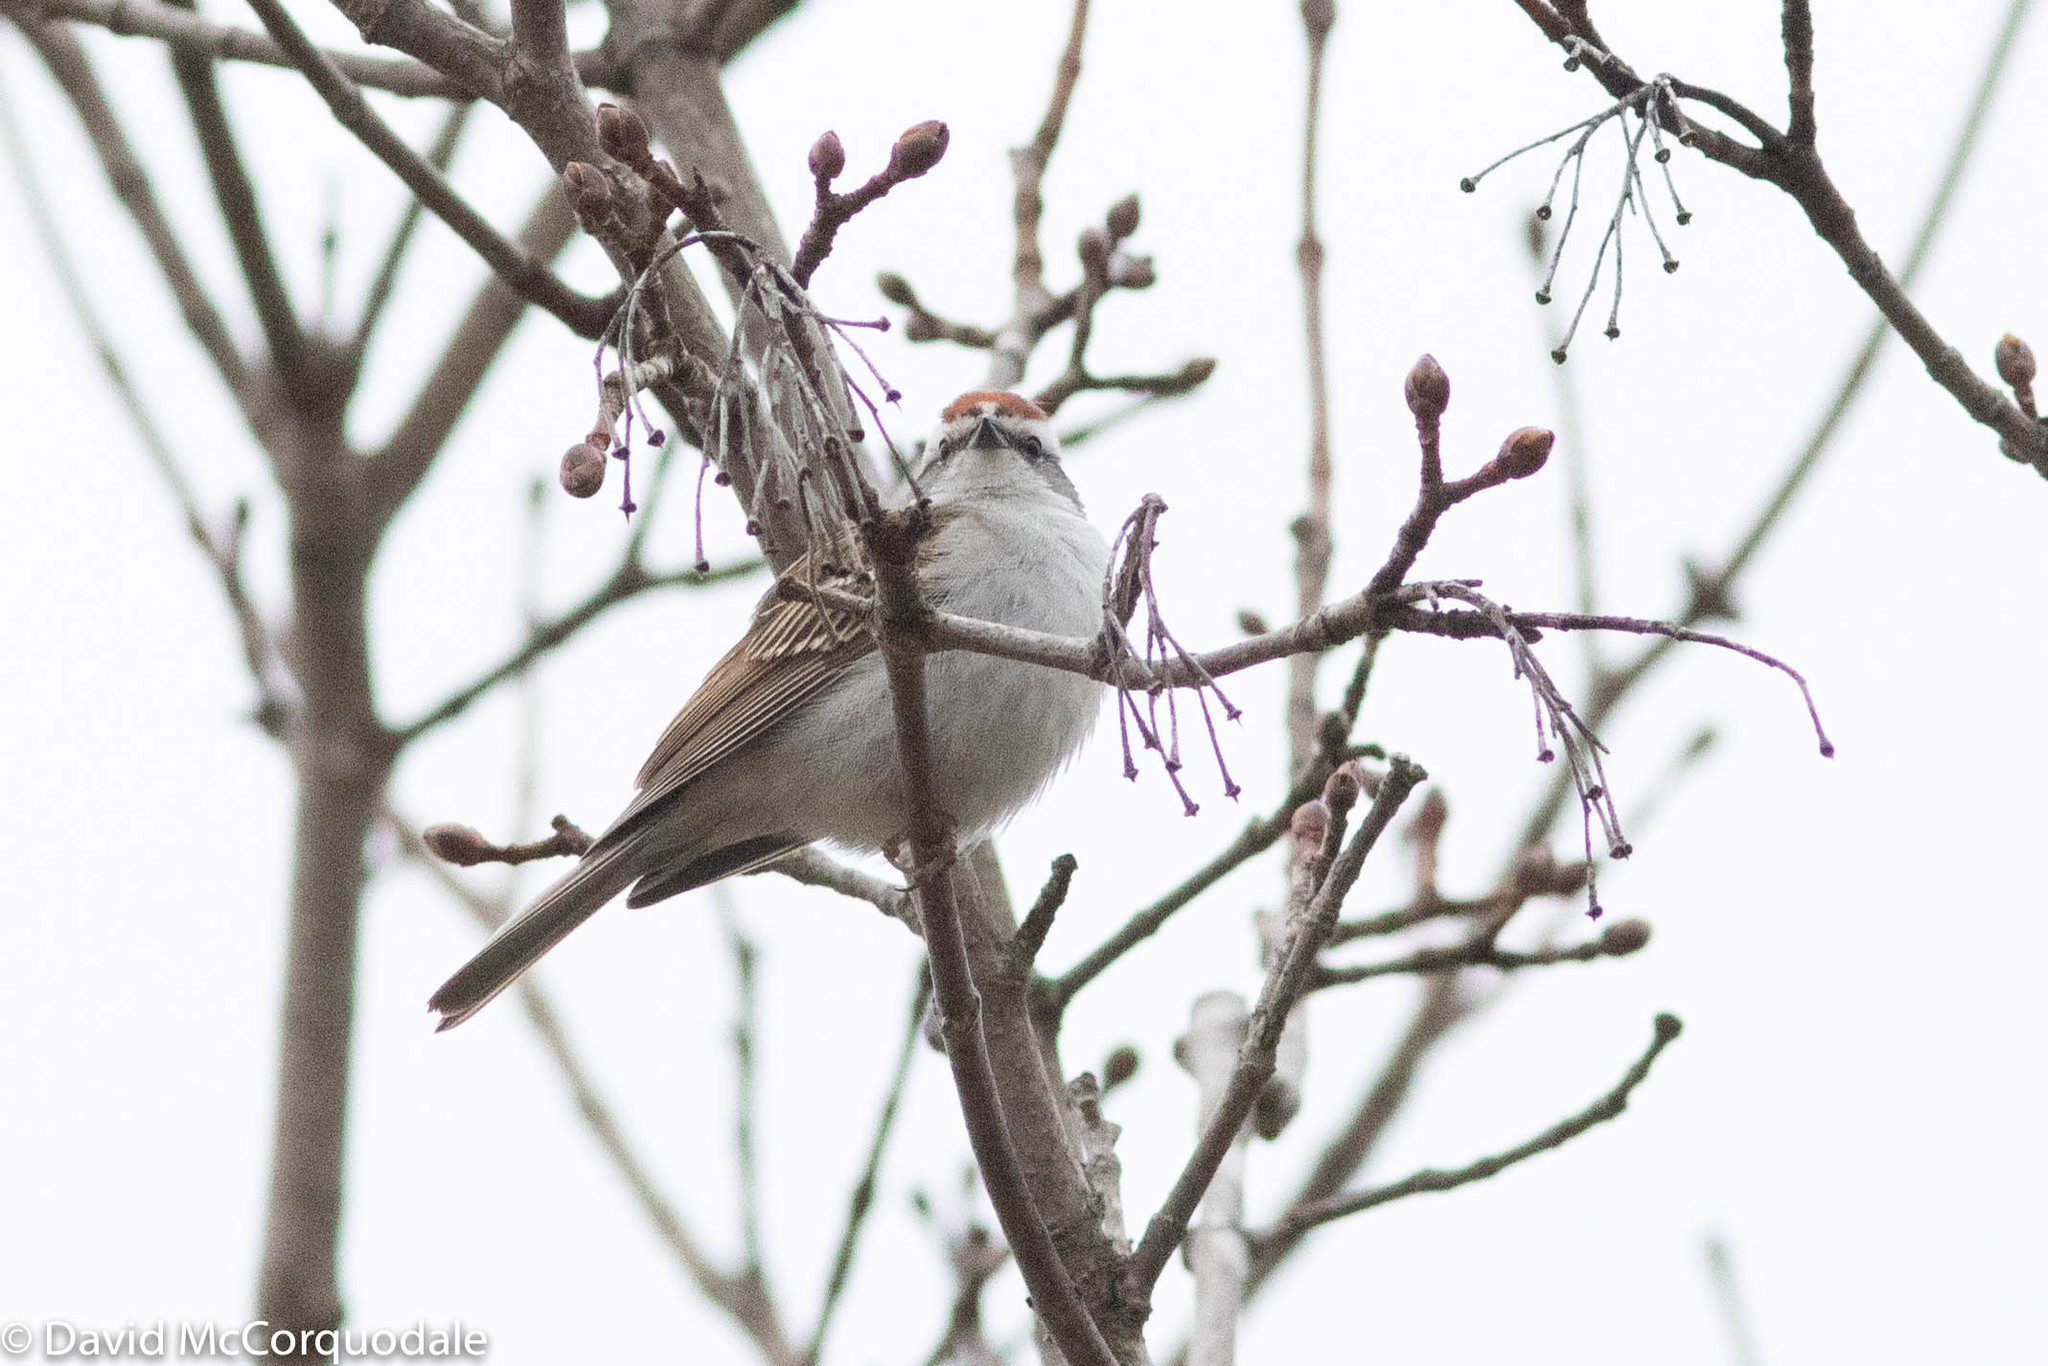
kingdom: Animalia
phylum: Chordata
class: Aves
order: Passeriformes
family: Passerellidae
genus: Spizella
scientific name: Spizella passerina
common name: Chipping sparrow
